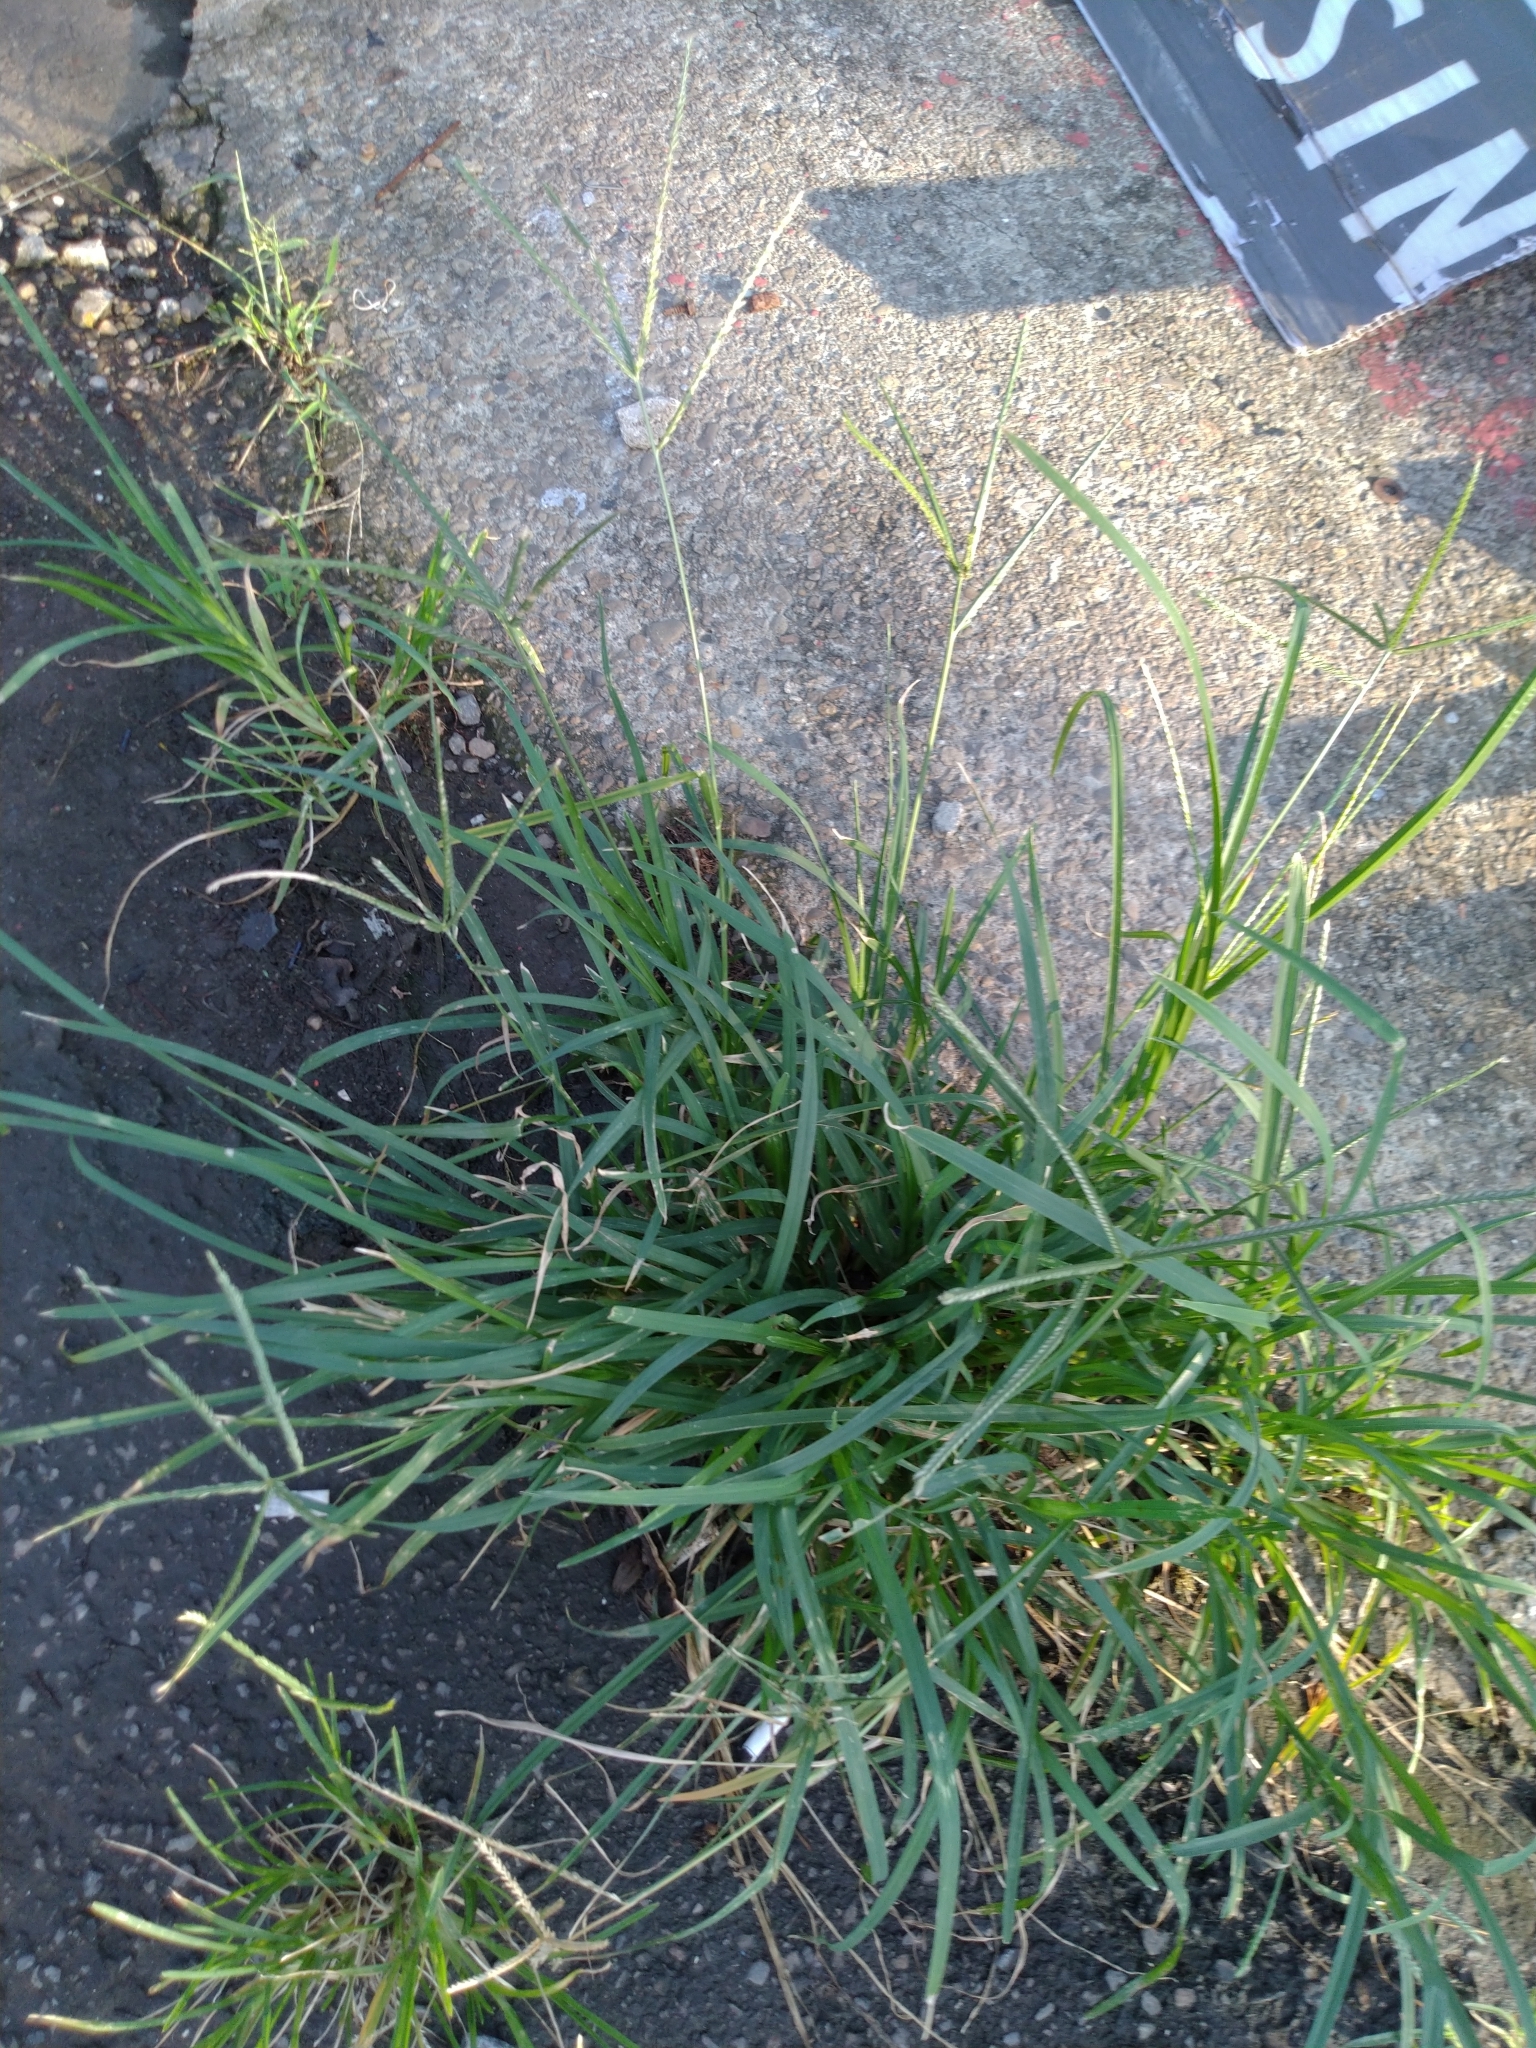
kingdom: Plantae
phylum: Tracheophyta
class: Liliopsida
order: Poales
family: Poaceae
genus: Eleusine
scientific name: Eleusine indica
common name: Yard-grass
